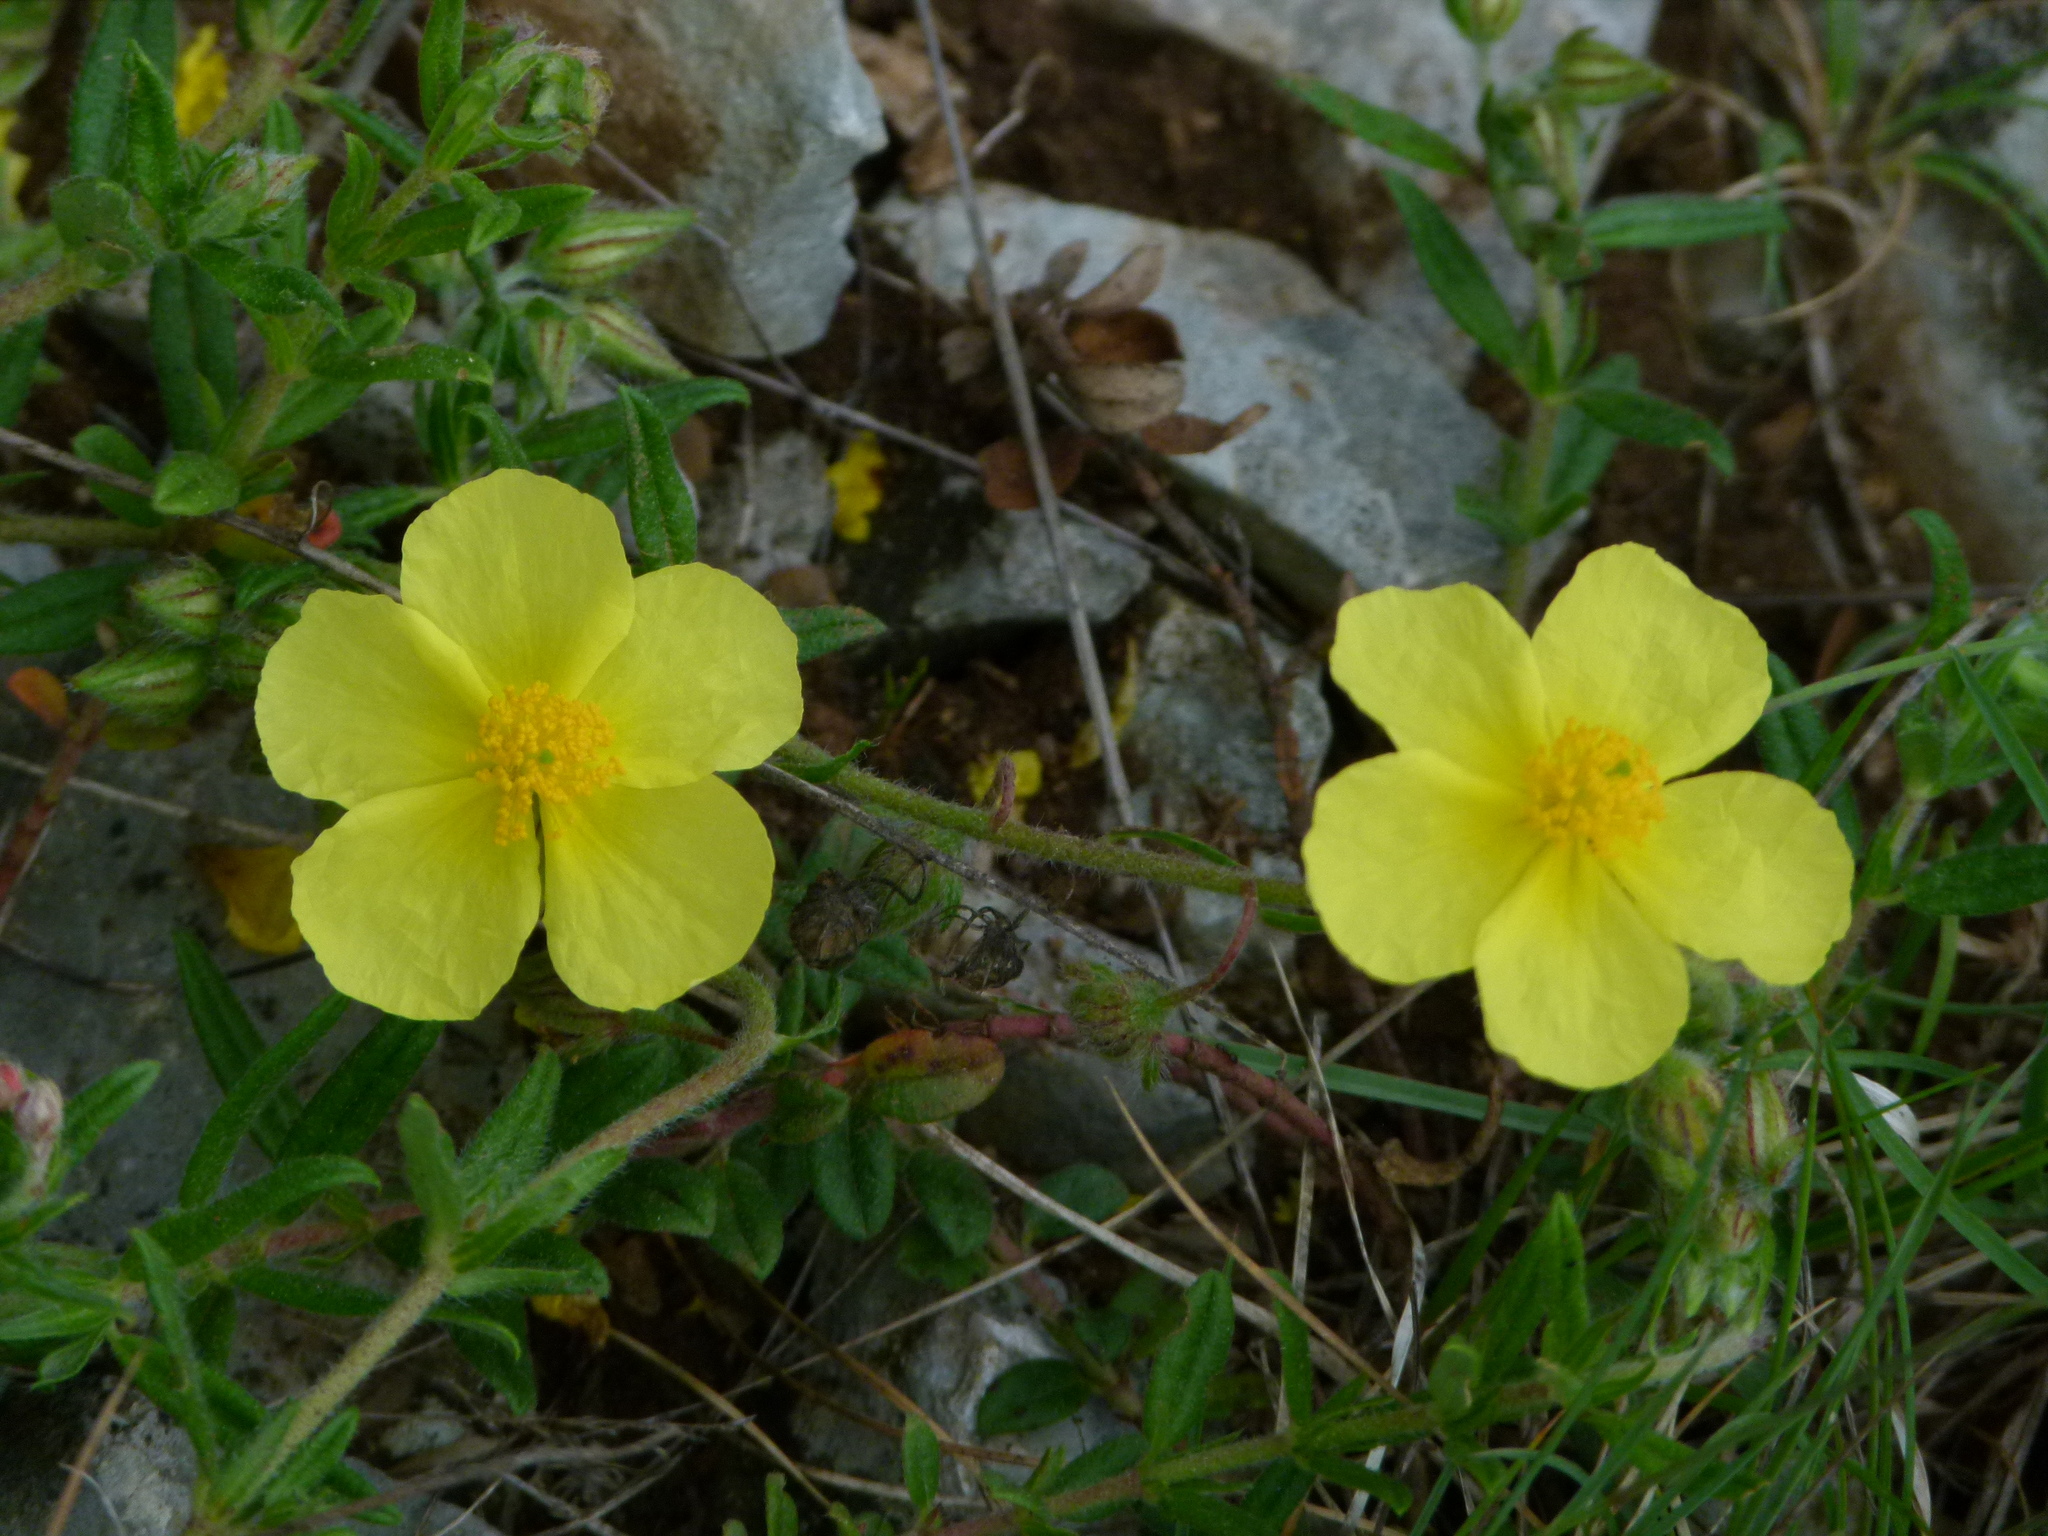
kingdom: Plantae
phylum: Tracheophyta
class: Magnoliopsida
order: Malvales
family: Cistaceae
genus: Helianthemum
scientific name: Helianthemum nummularium
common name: Common rock-rose
